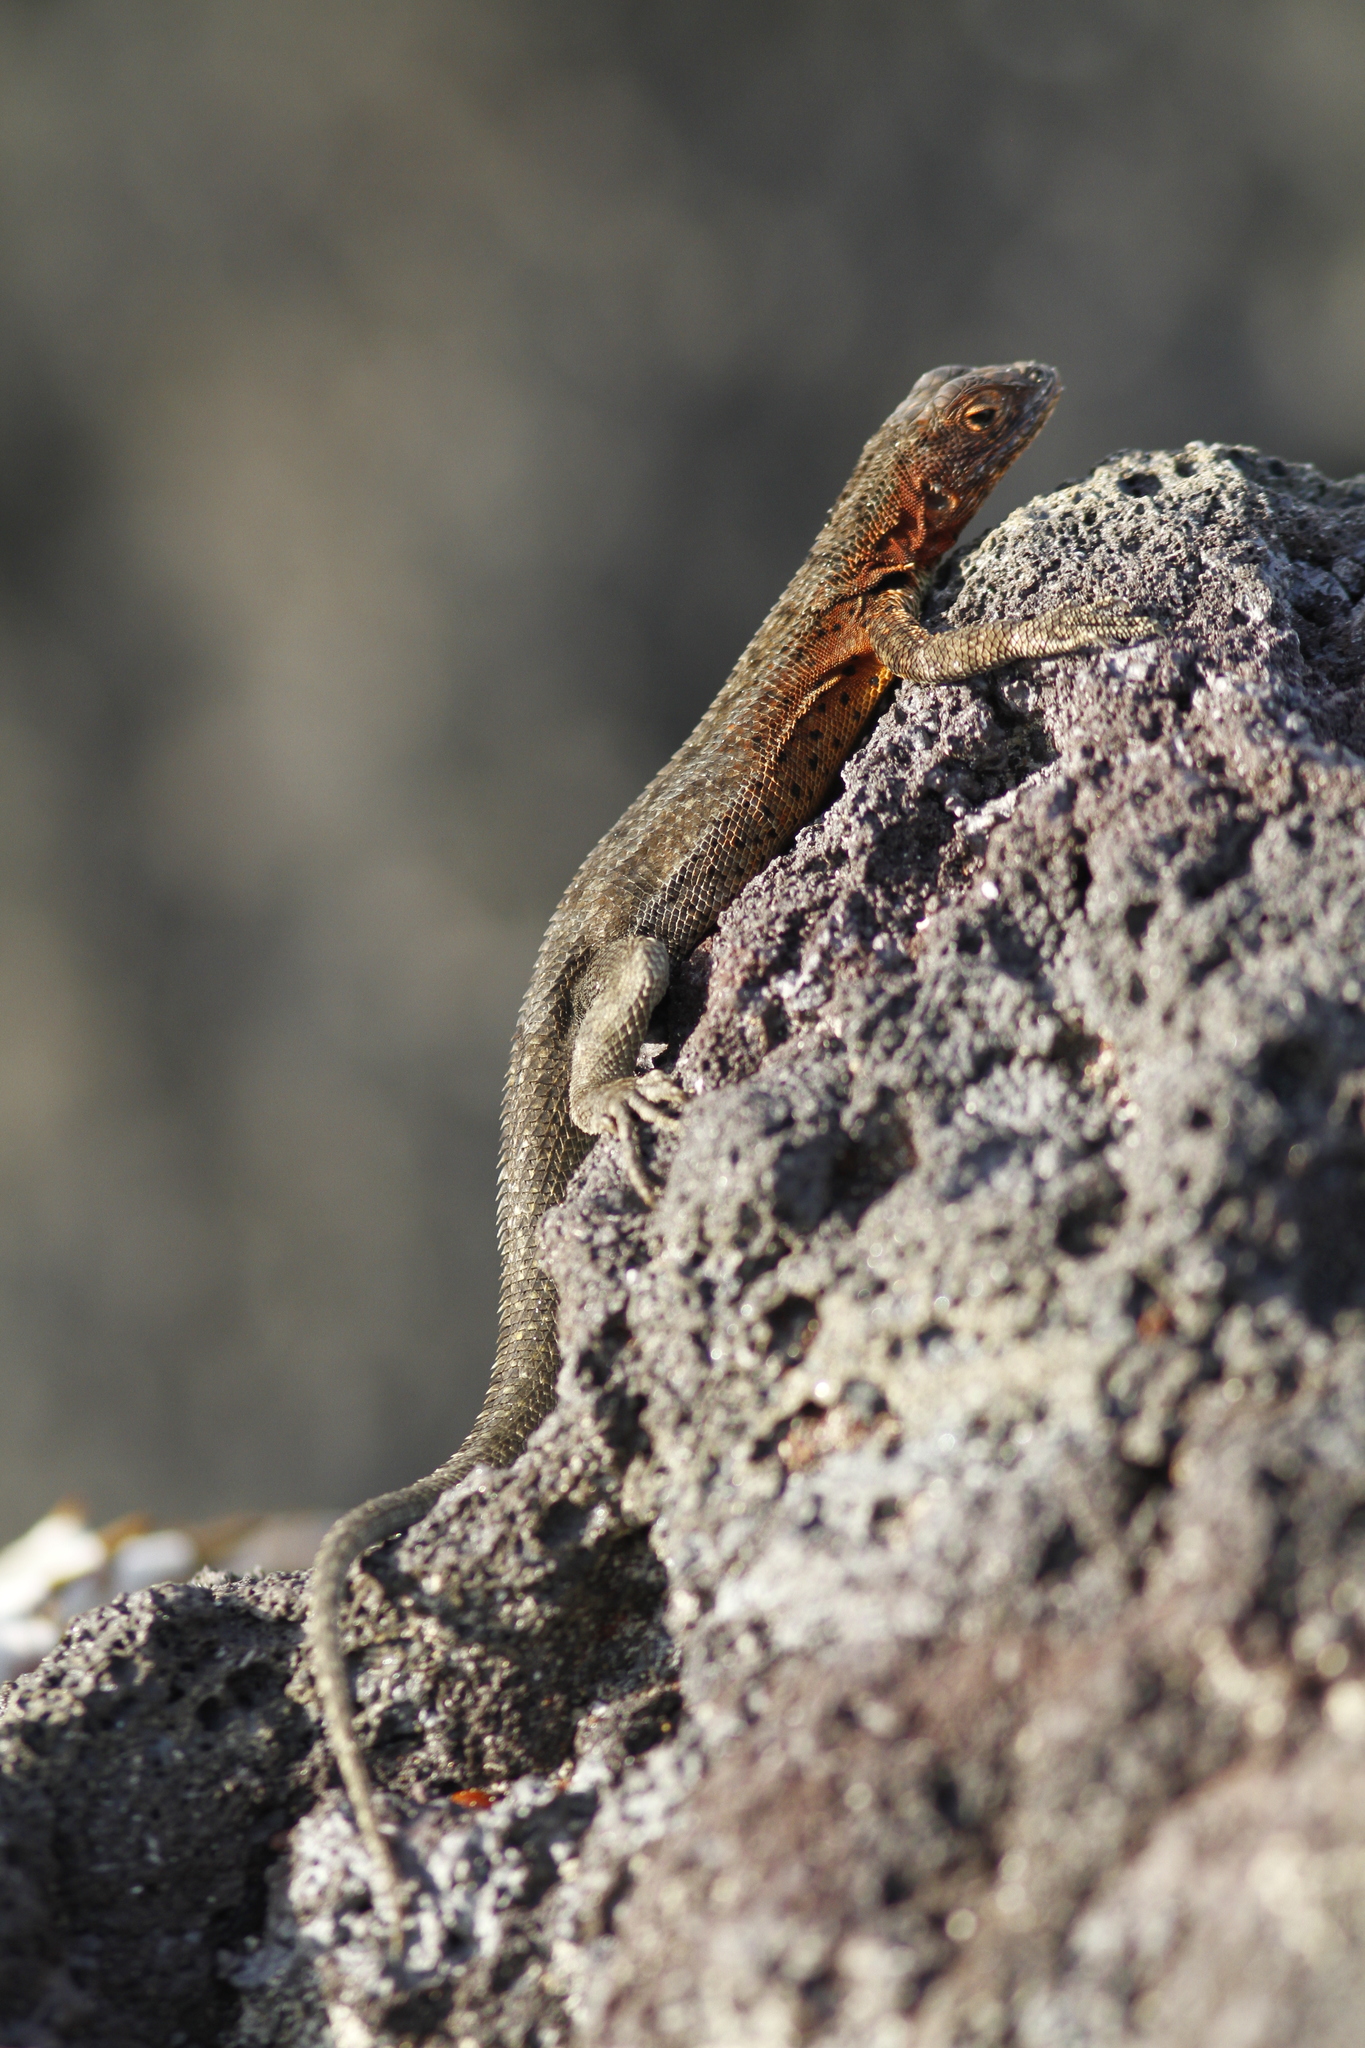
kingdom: Animalia
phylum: Chordata
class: Squamata
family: Tropiduridae
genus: Microlophus
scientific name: Microlophus albemarlensis
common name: Galapagos lava lizard
